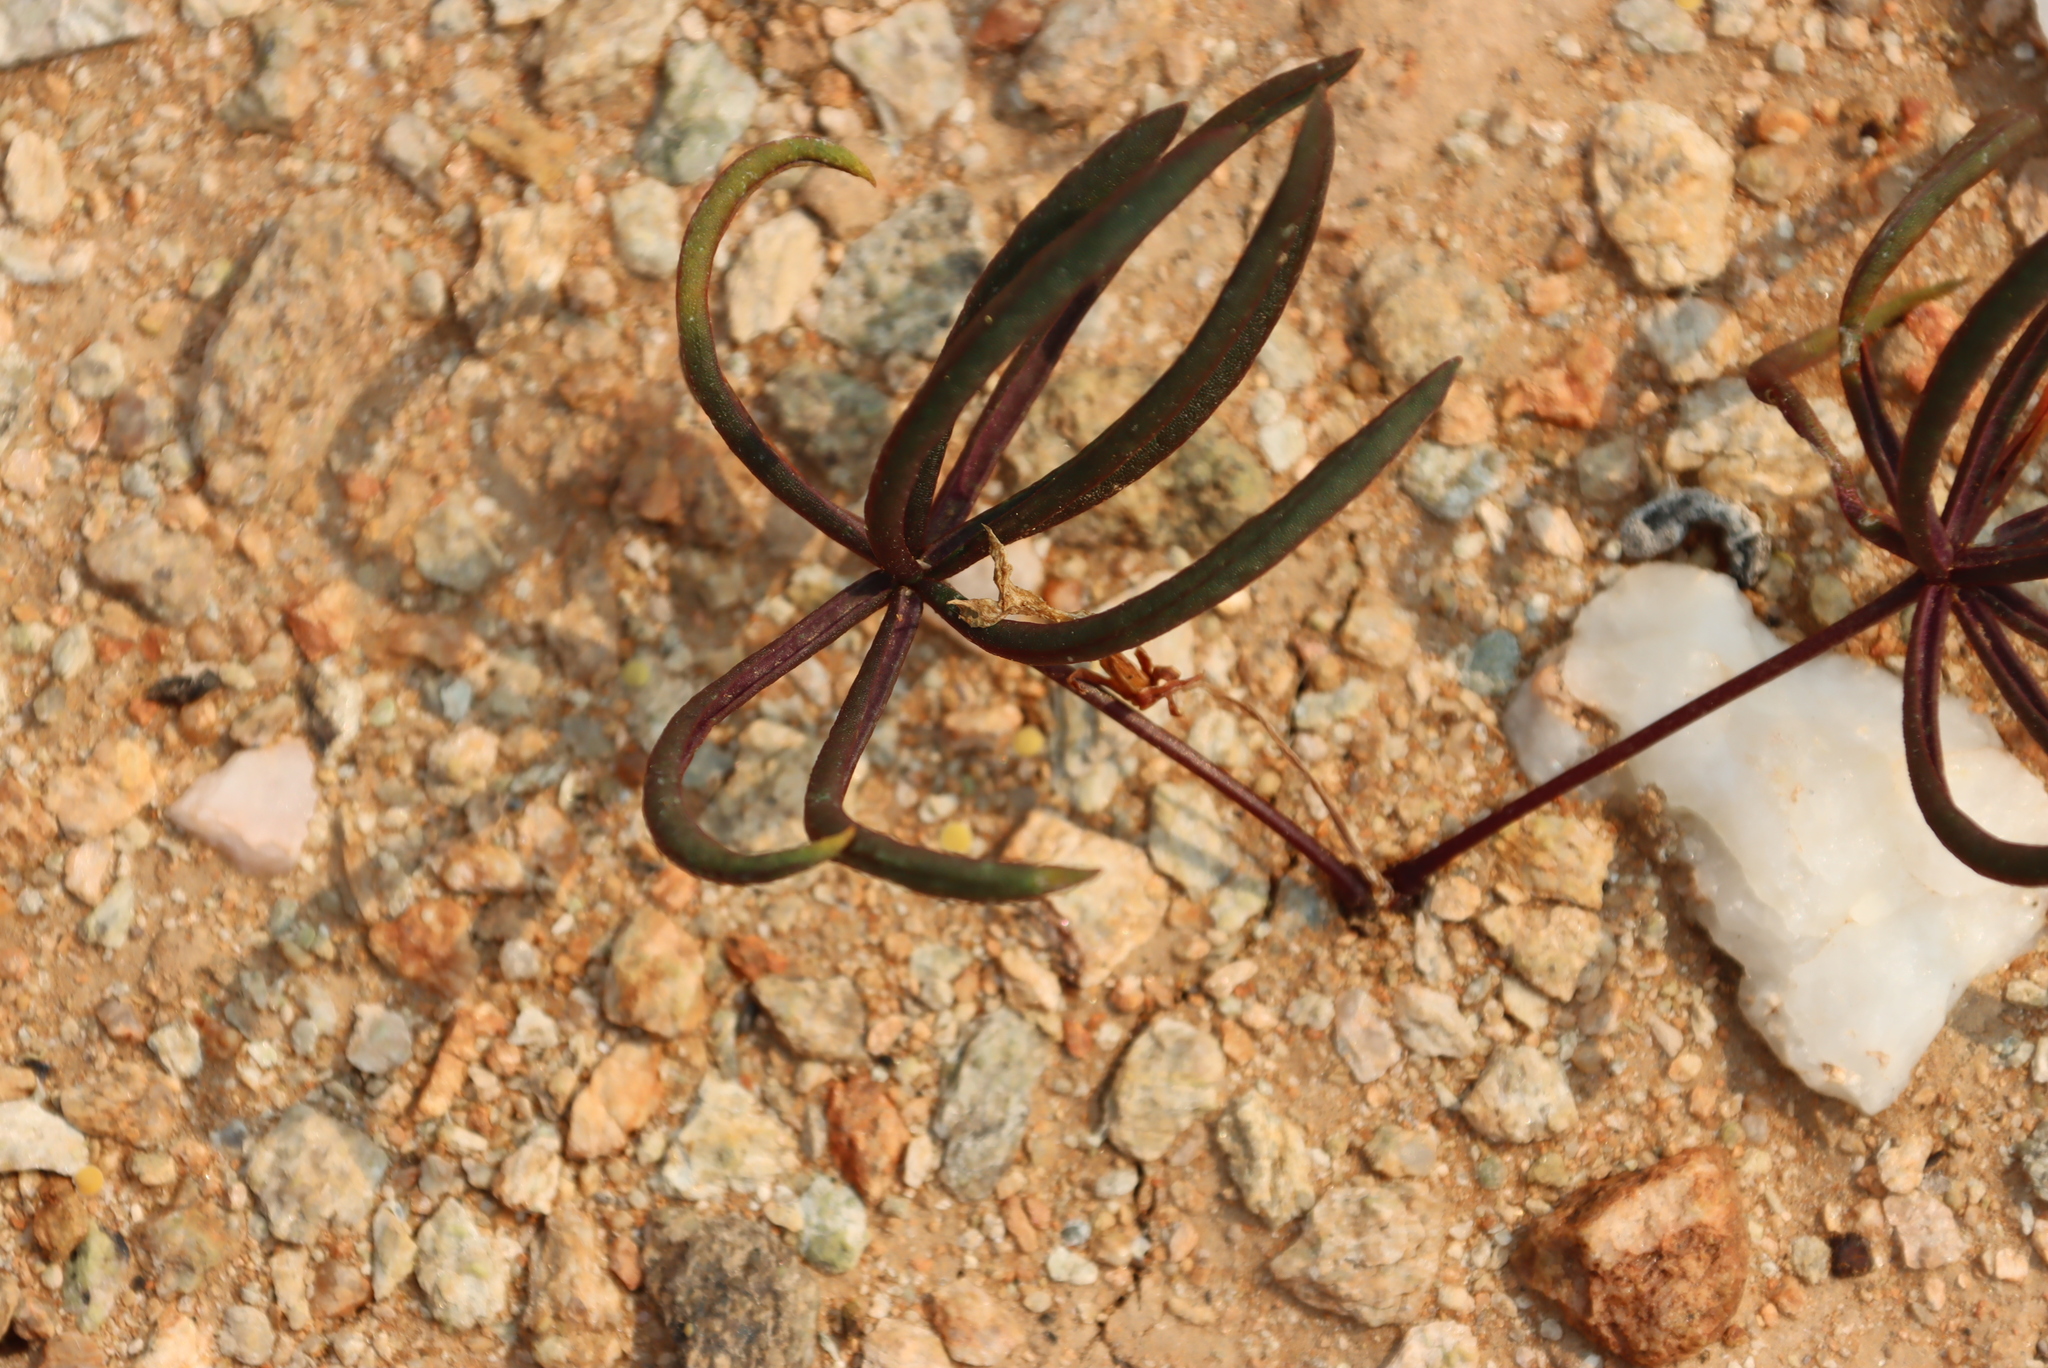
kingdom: Plantae
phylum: Tracheophyta
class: Magnoliopsida
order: Oxalidales
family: Oxalidaceae
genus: Oxalis
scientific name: Oxalis canaliculata
